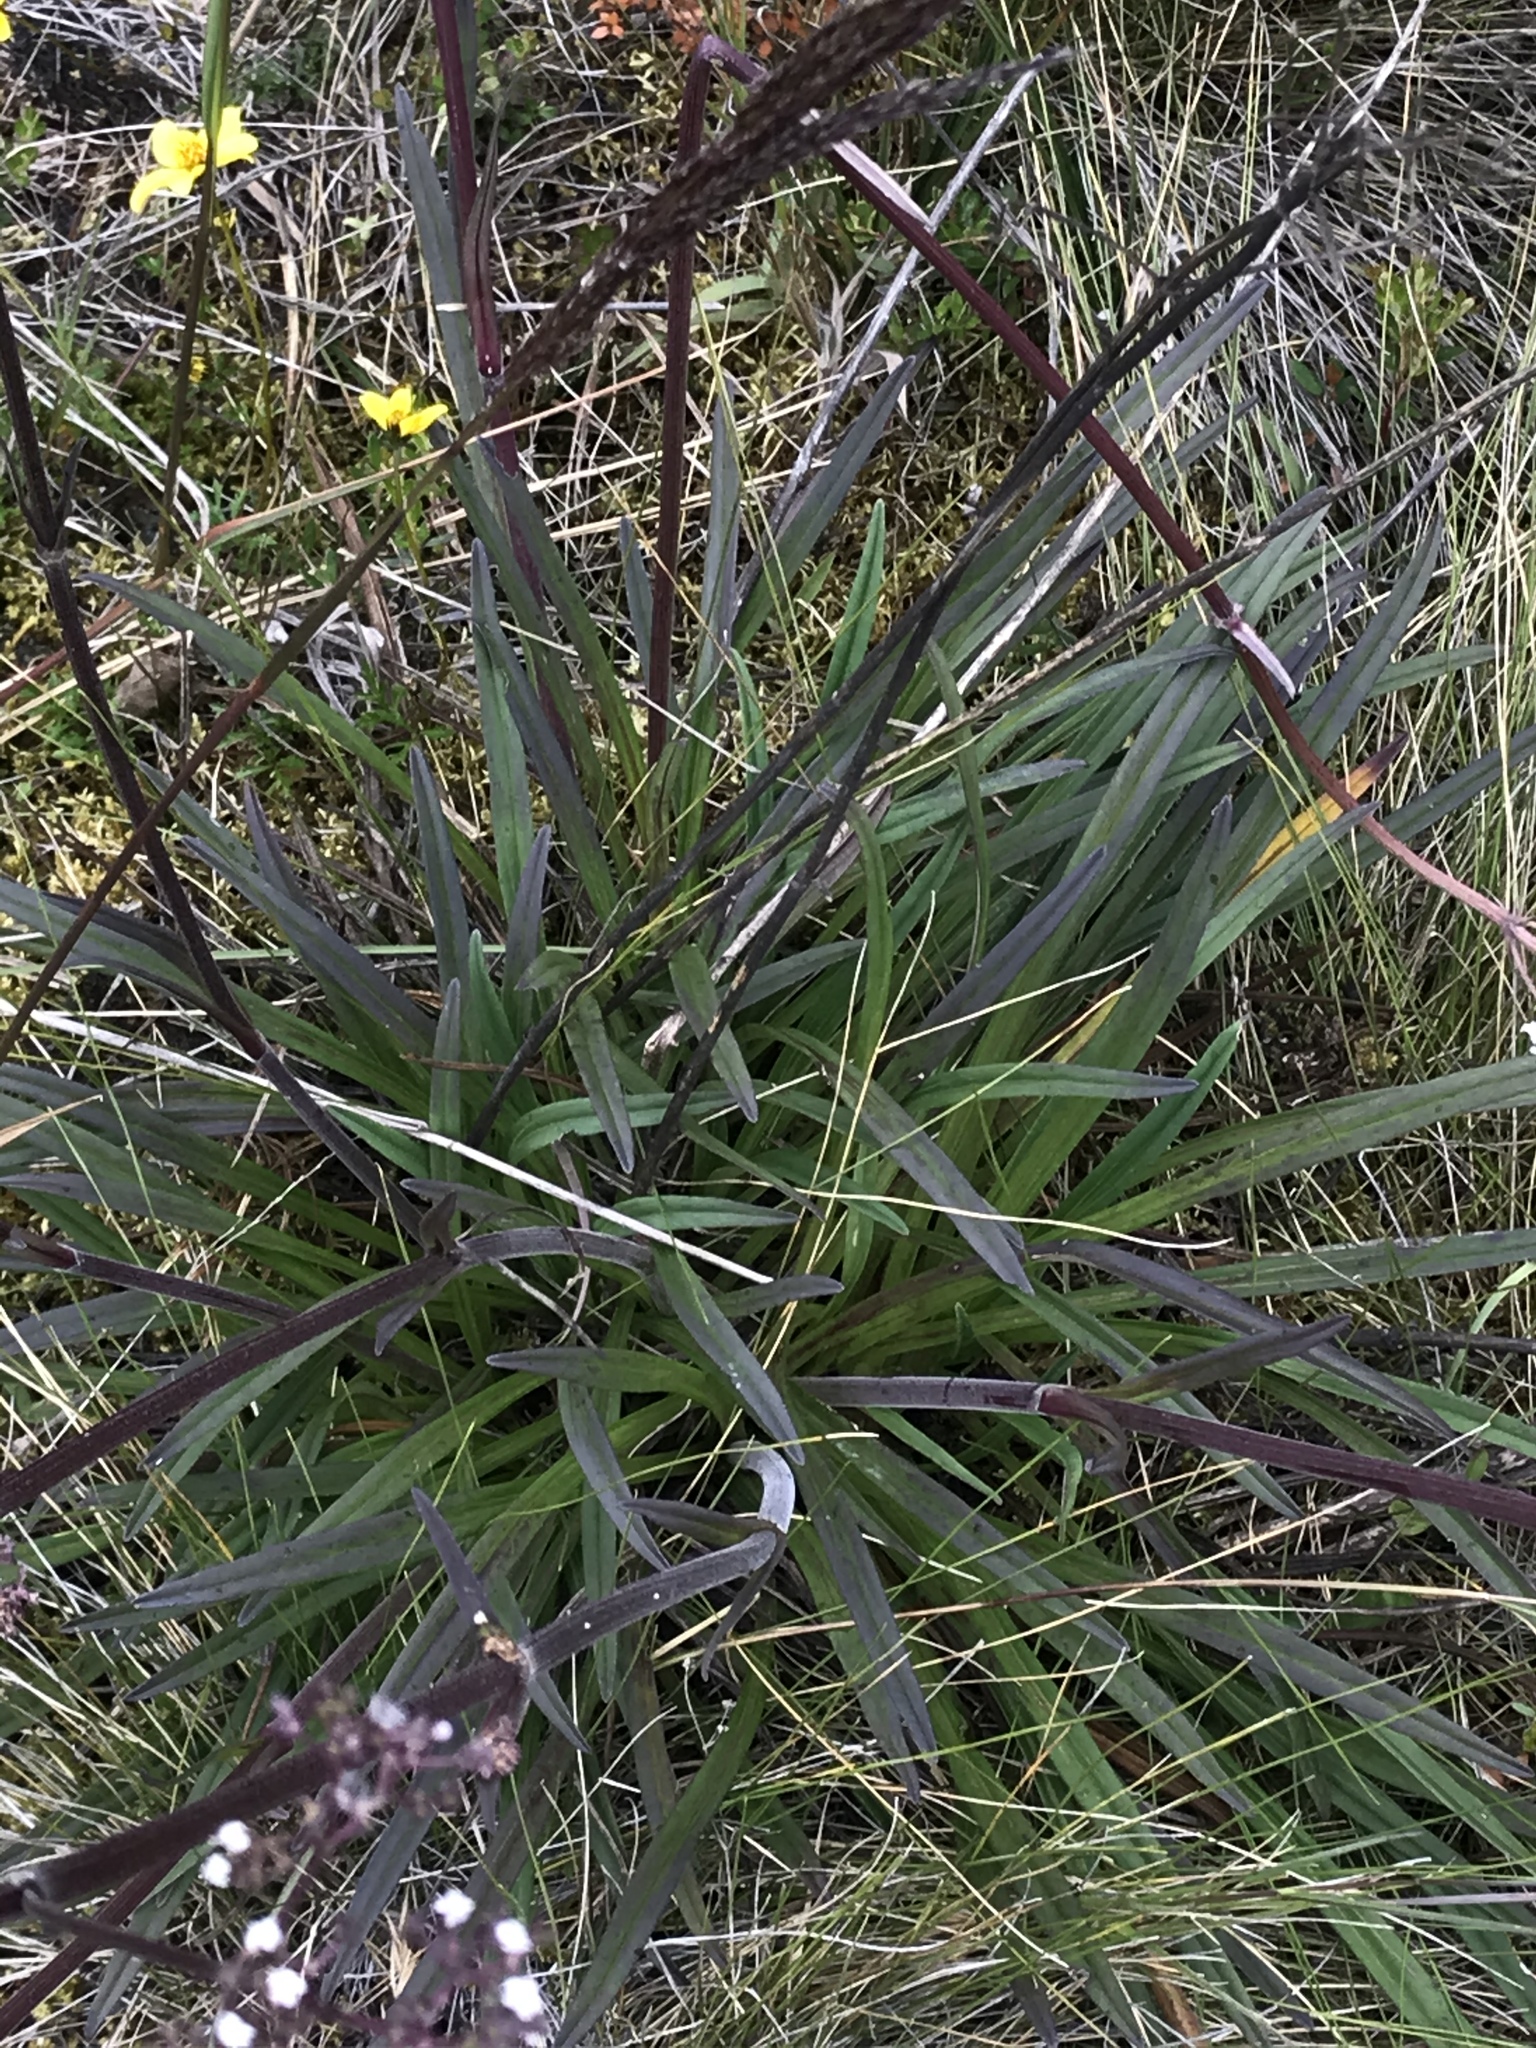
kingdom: Plantae
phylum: Tracheophyta
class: Magnoliopsida
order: Dipsacales
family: Caprifoliaceae
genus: Valeriana
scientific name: Valeriana pilosa
